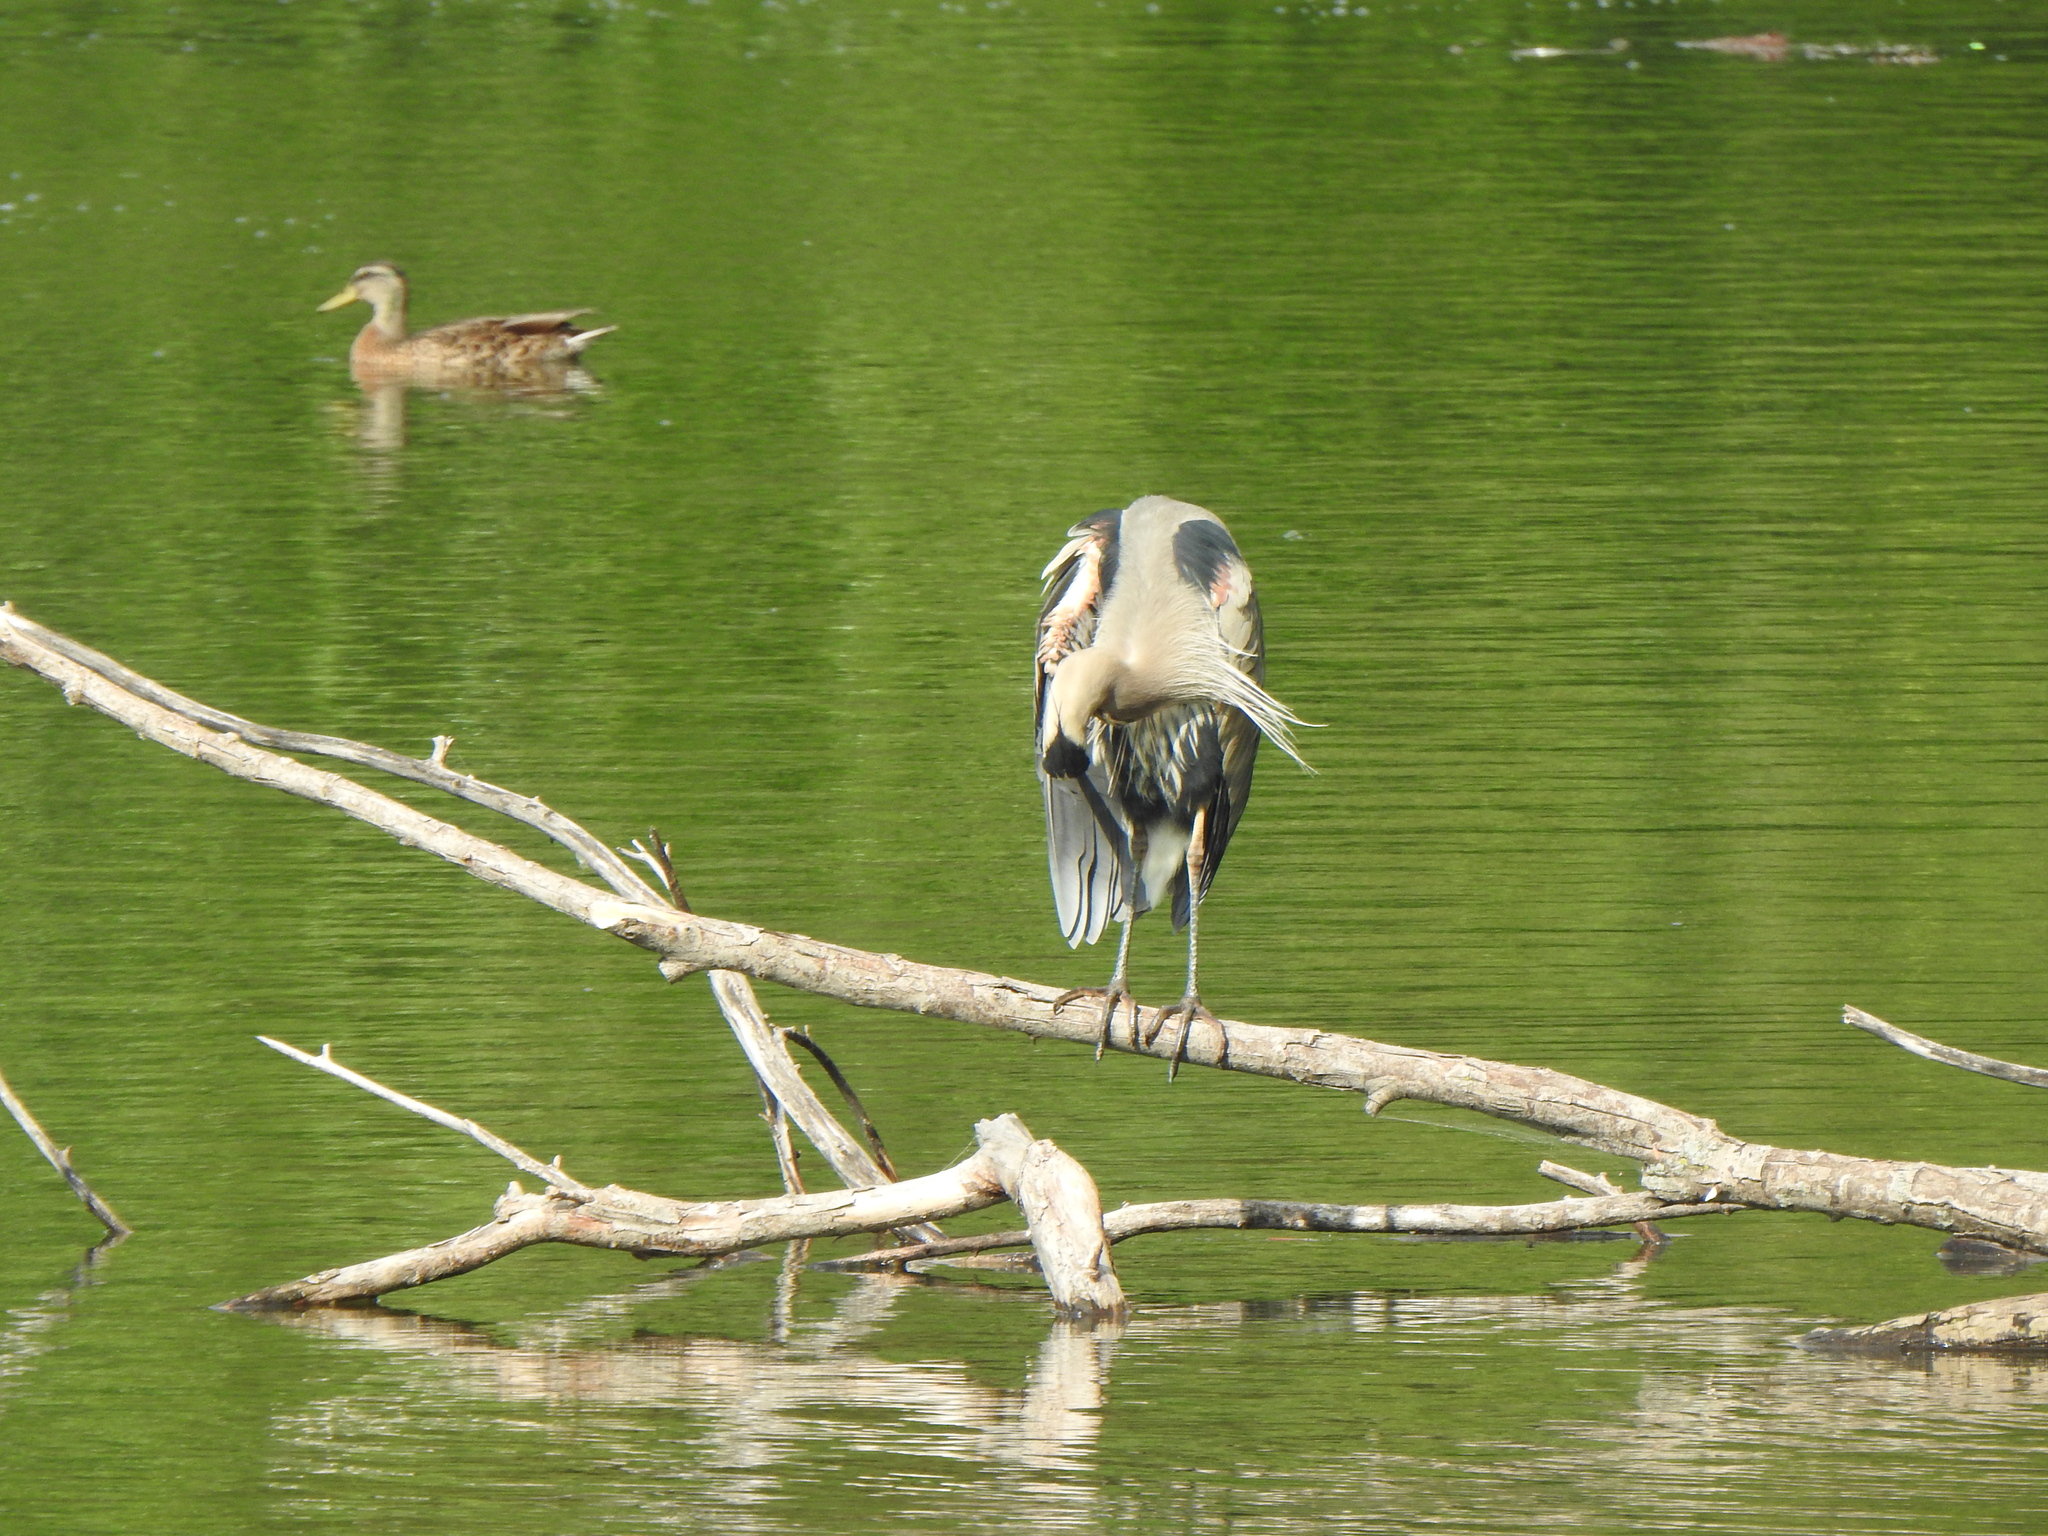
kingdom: Animalia
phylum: Chordata
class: Aves
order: Pelecaniformes
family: Ardeidae
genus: Ardea
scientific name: Ardea herodias
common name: Great blue heron
